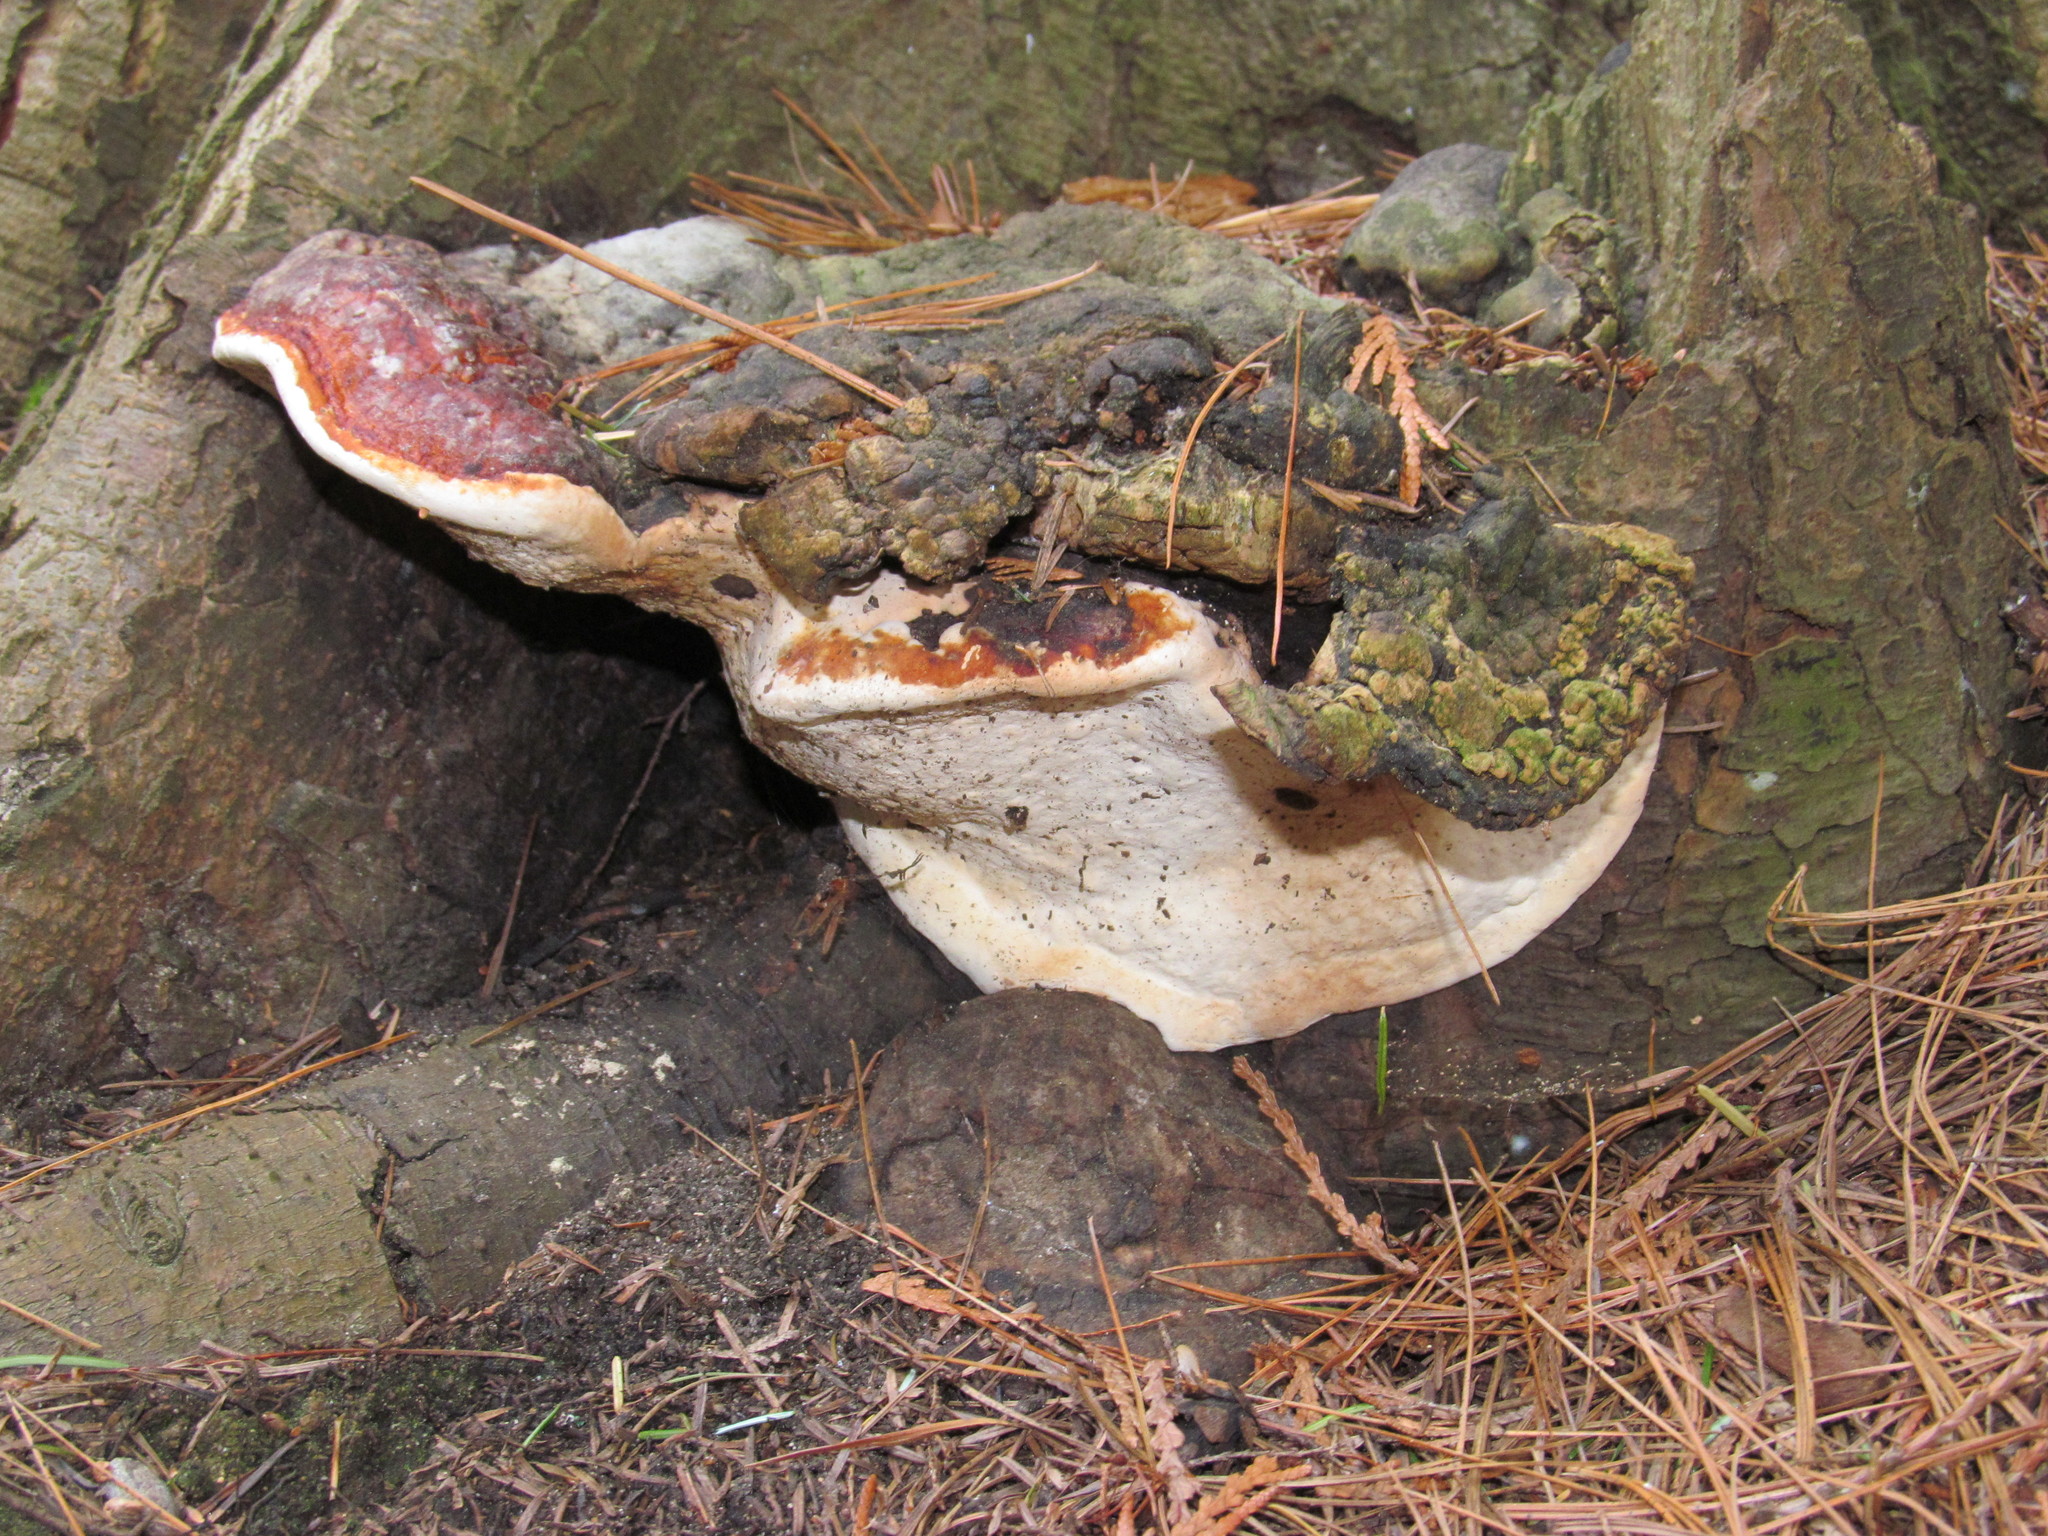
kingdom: Fungi
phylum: Basidiomycota
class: Agaricomycetes
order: Polyporales
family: Fomitopsidaceae
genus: Fomitopsis
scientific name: Fomitopsis mounceae
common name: Northern red belt
